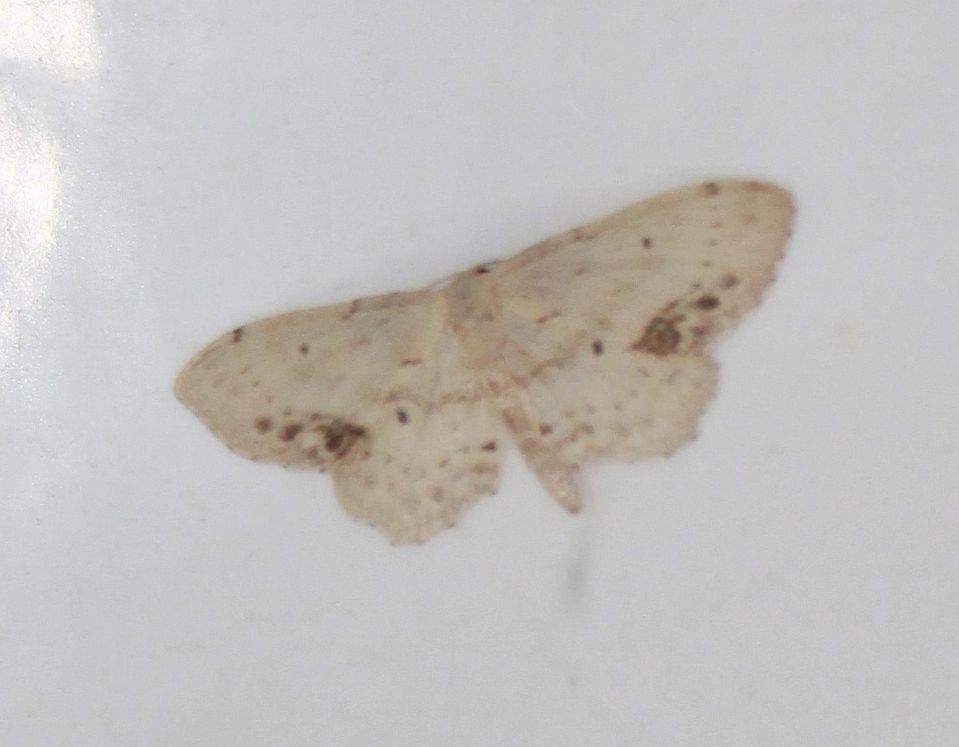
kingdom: Animalia
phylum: Arthropoda
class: Insecta
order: Lepidoptera
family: Geometridae
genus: Idaea
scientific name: Idaea dimidiata
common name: Single-dotted wave
